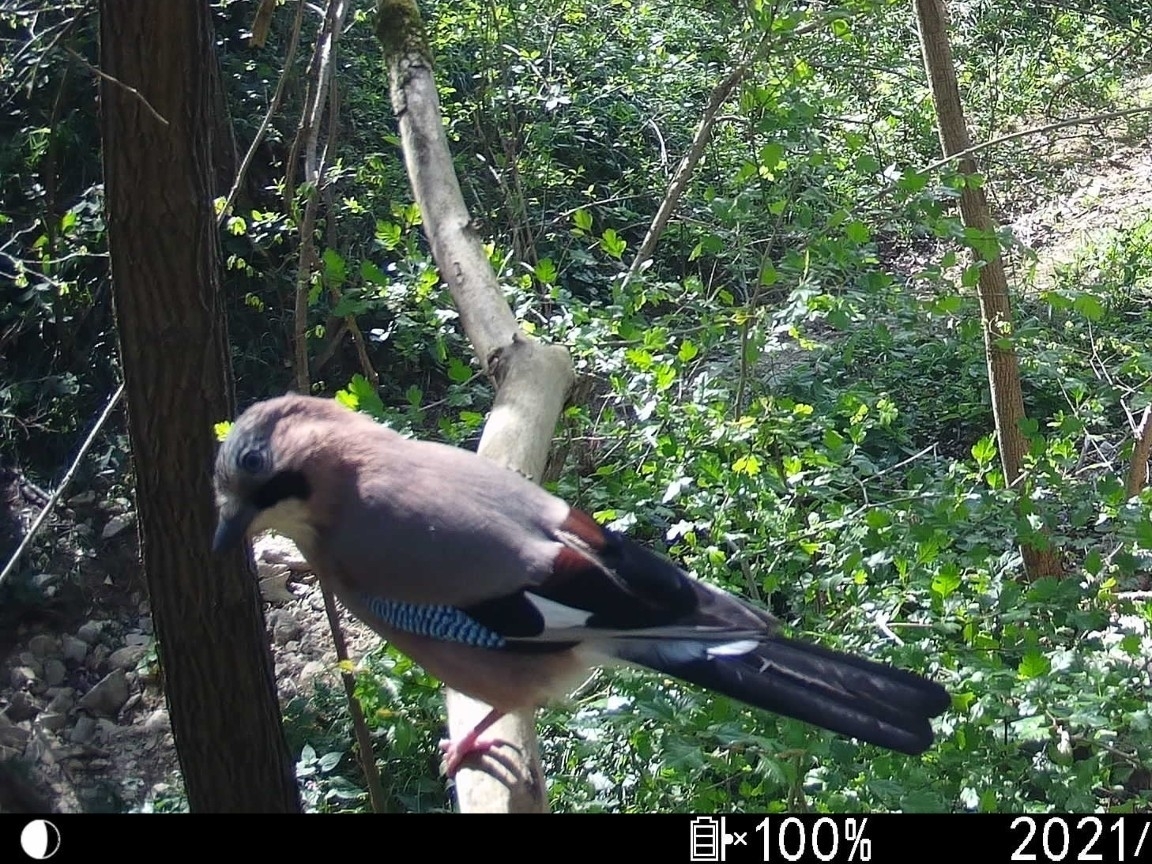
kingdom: Animalia
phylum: Chordata
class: Aves
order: Passeriformes
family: Corvidae
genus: Garrulus
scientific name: Garrulus glandarius
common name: Eurasian jay
